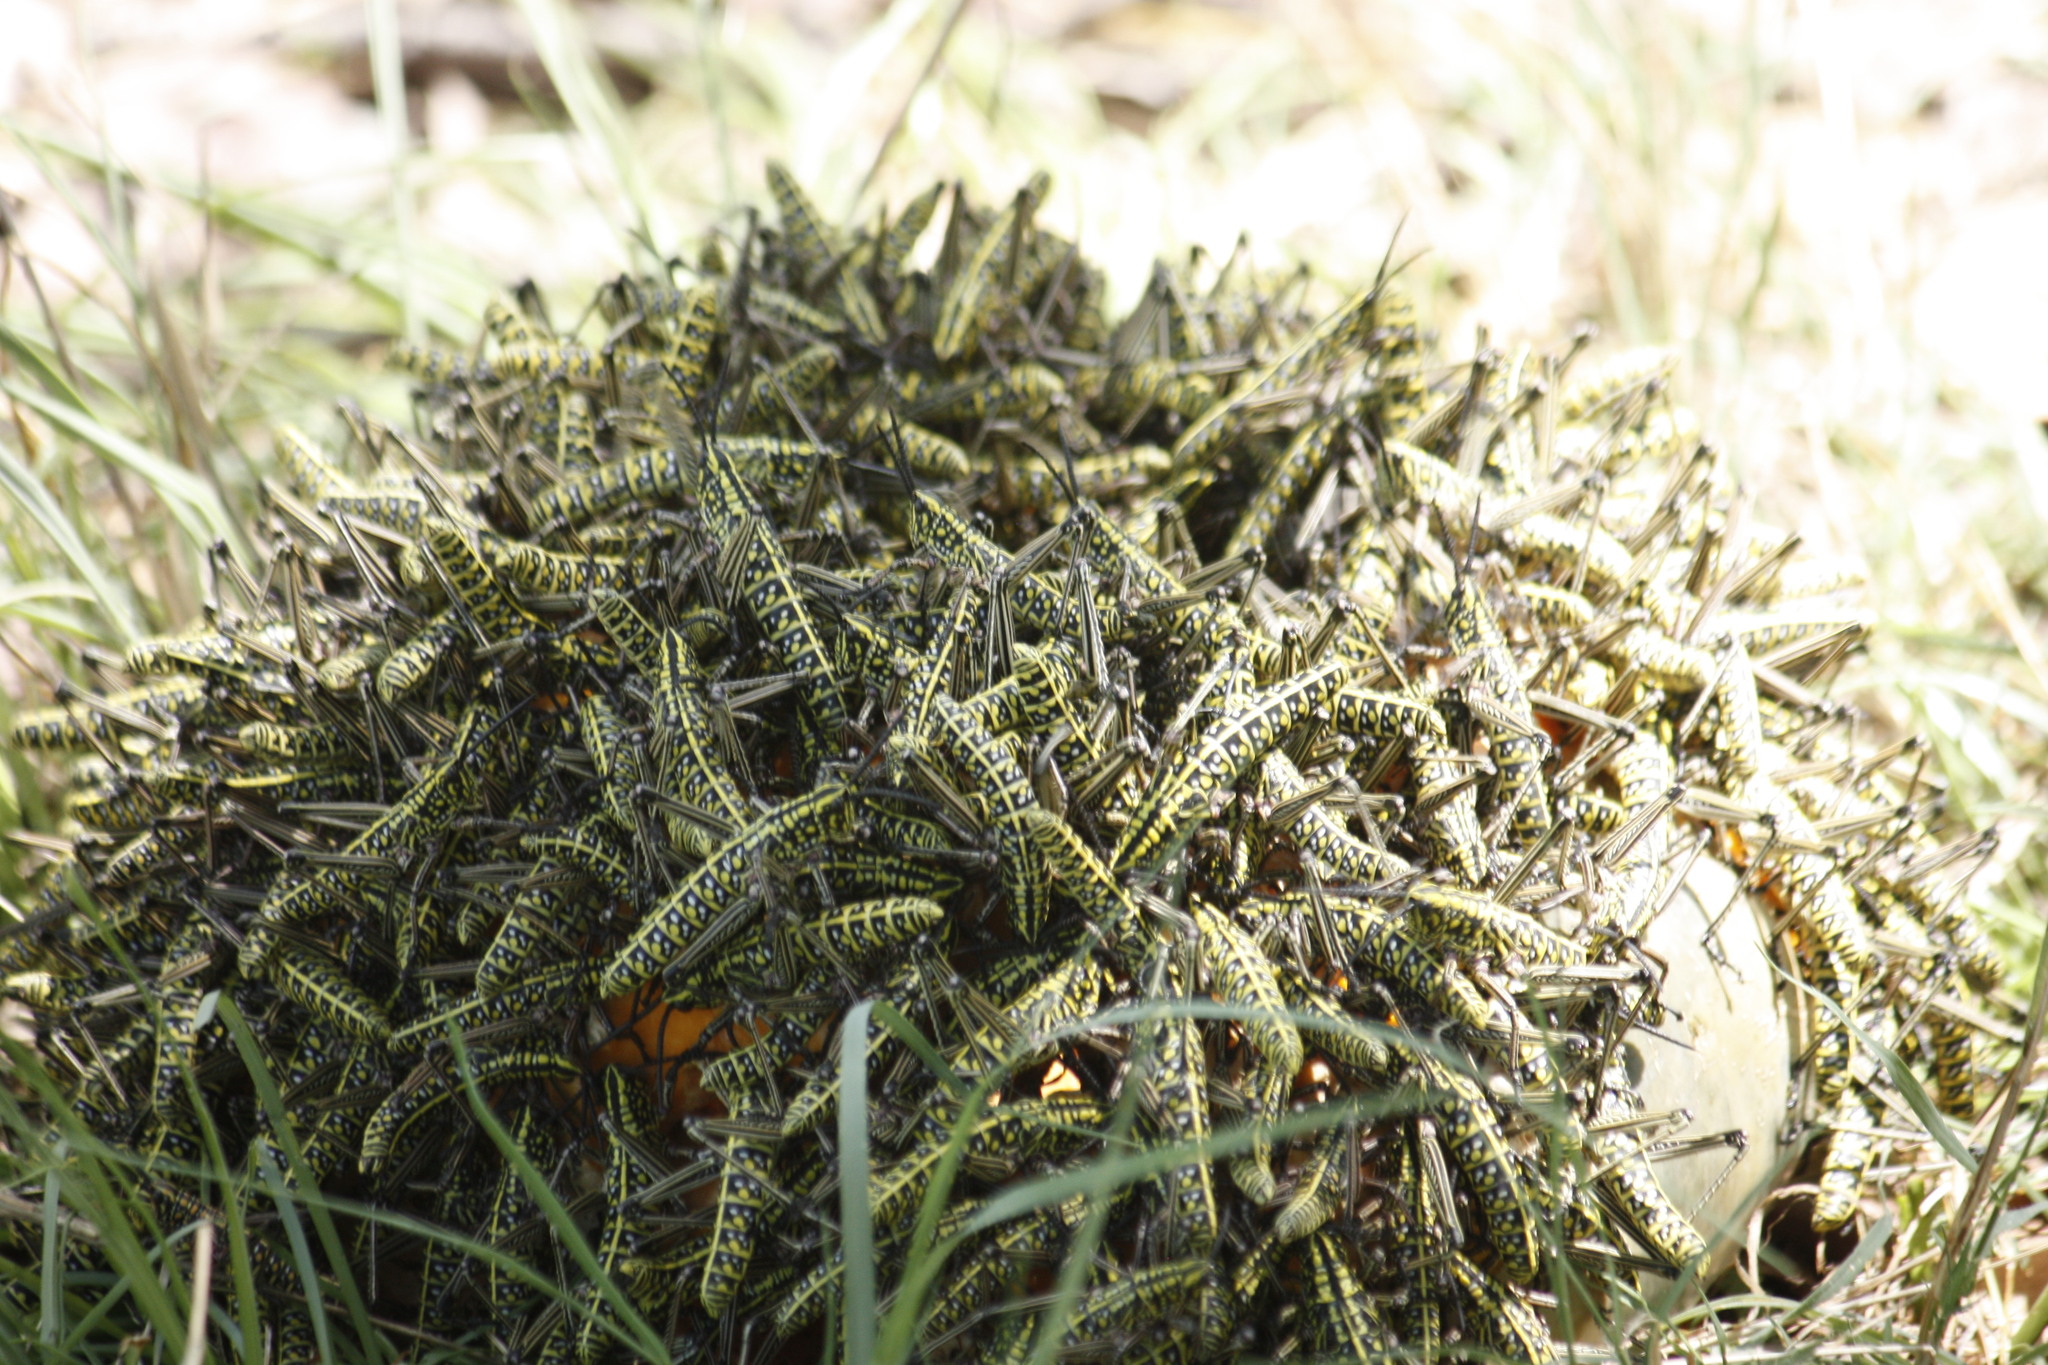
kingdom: Animalia
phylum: Arthropoda
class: Insecta
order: Orthoptera
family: Pyrgomorphidae
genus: Phymateus
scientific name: Phymateus viridipes
